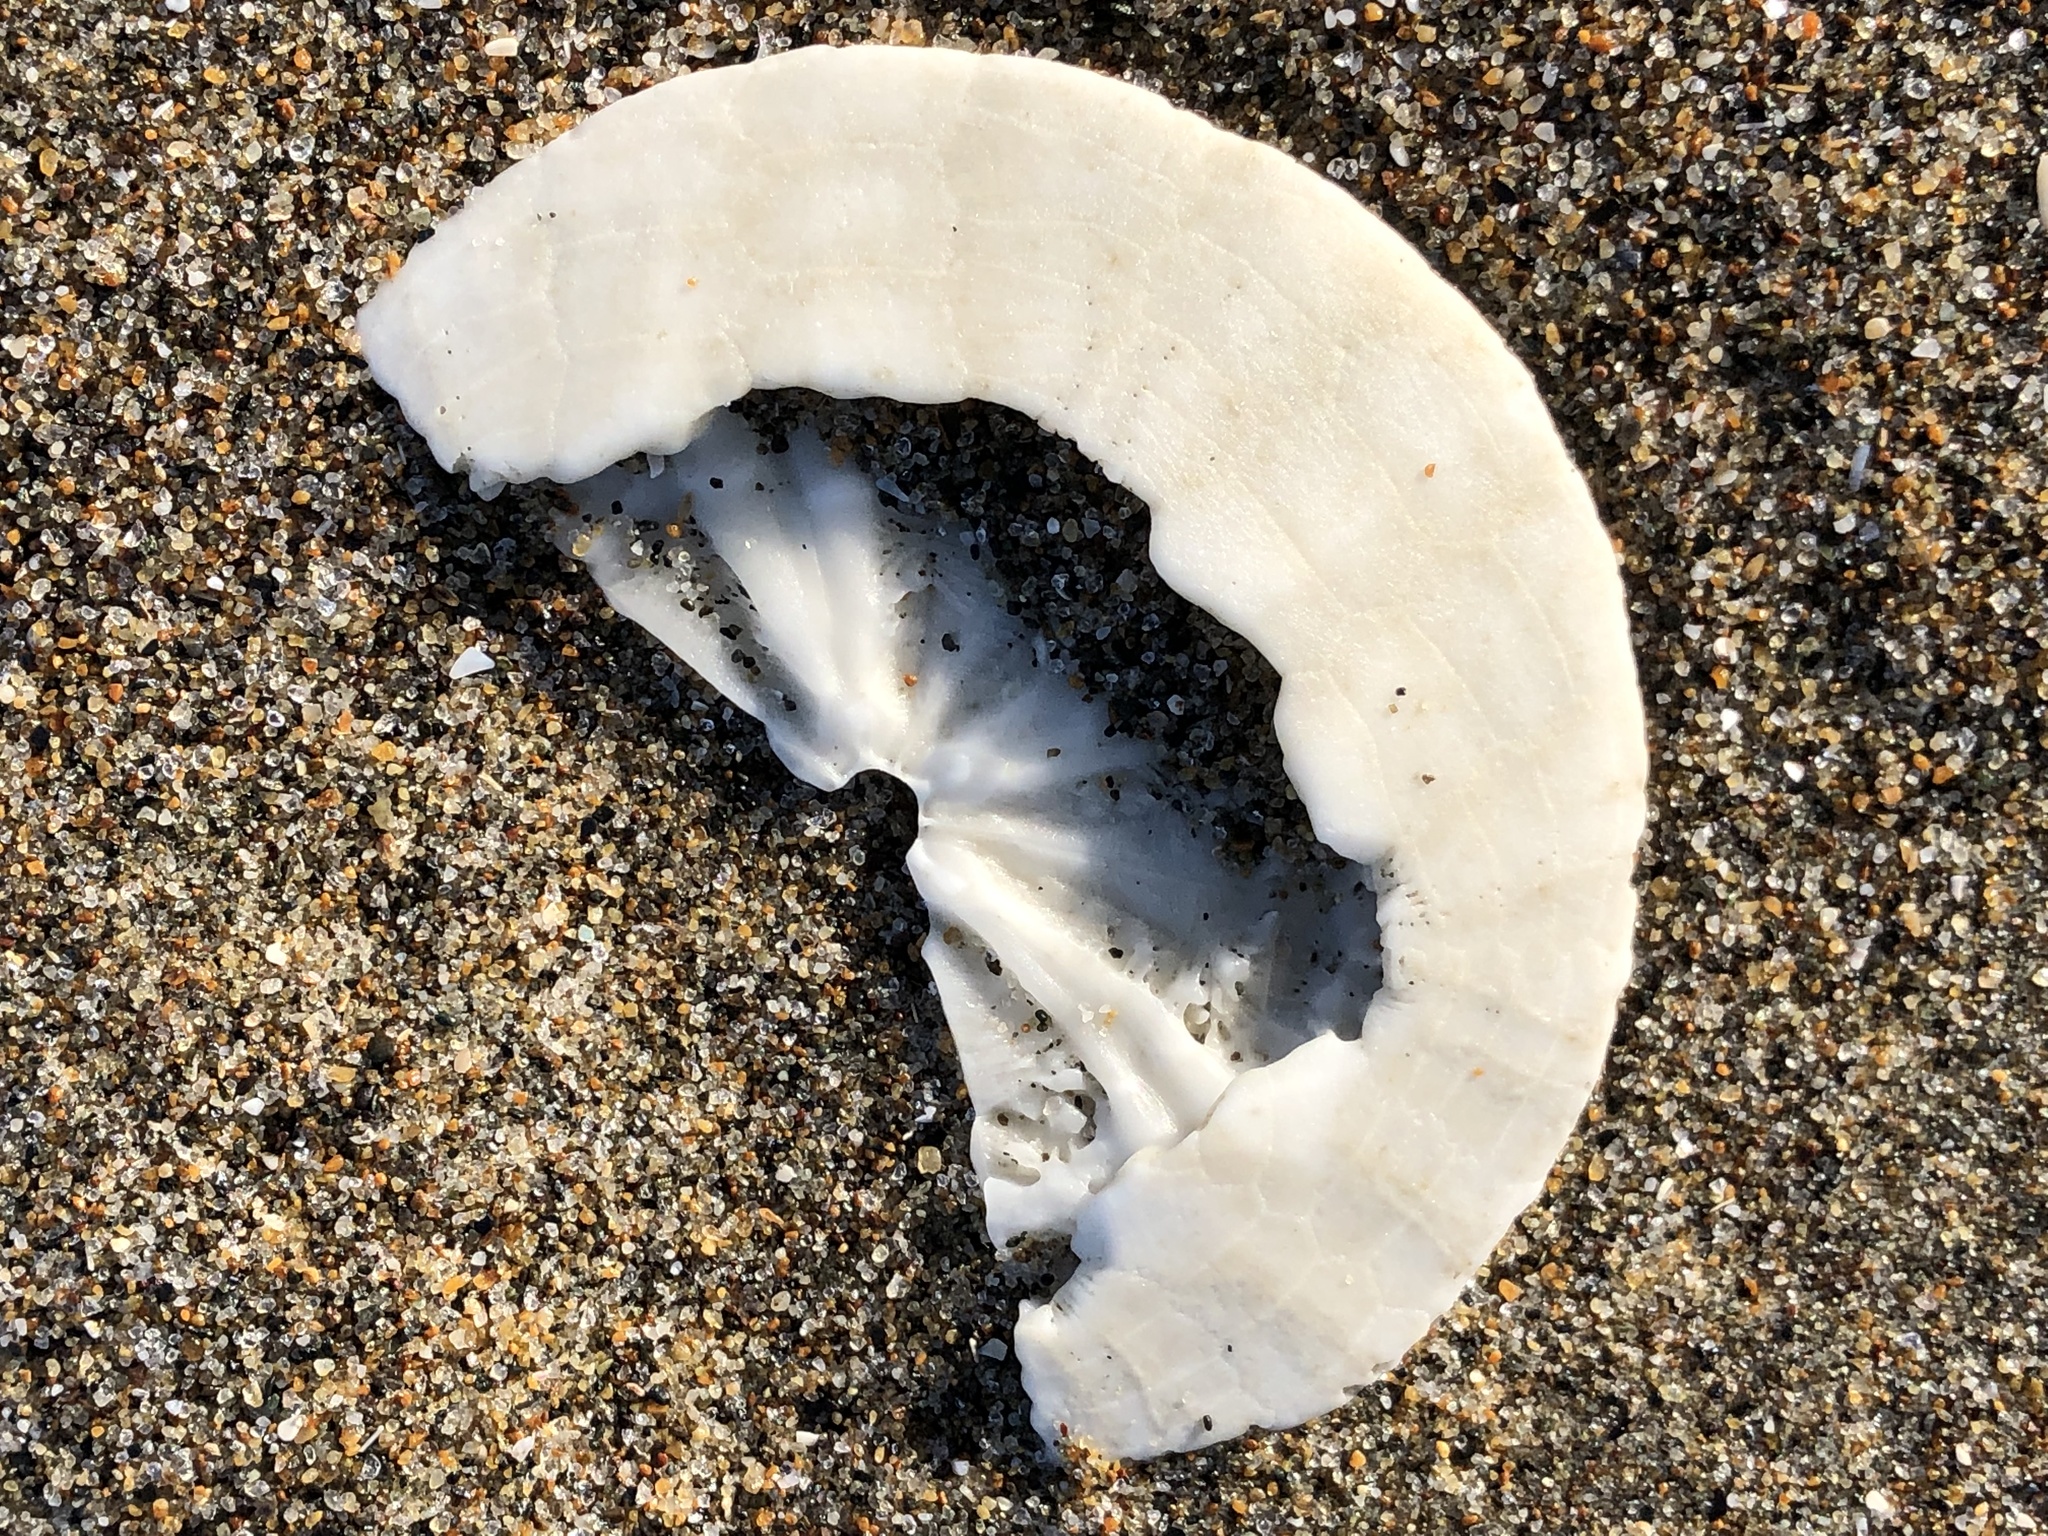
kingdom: Animalia
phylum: Echinodermata
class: Echinoidea
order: Echinolampadacea
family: Dendrasteridae
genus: Dendraster
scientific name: Dendraster excentricus
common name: Eccentric sand dollar sea urchin
